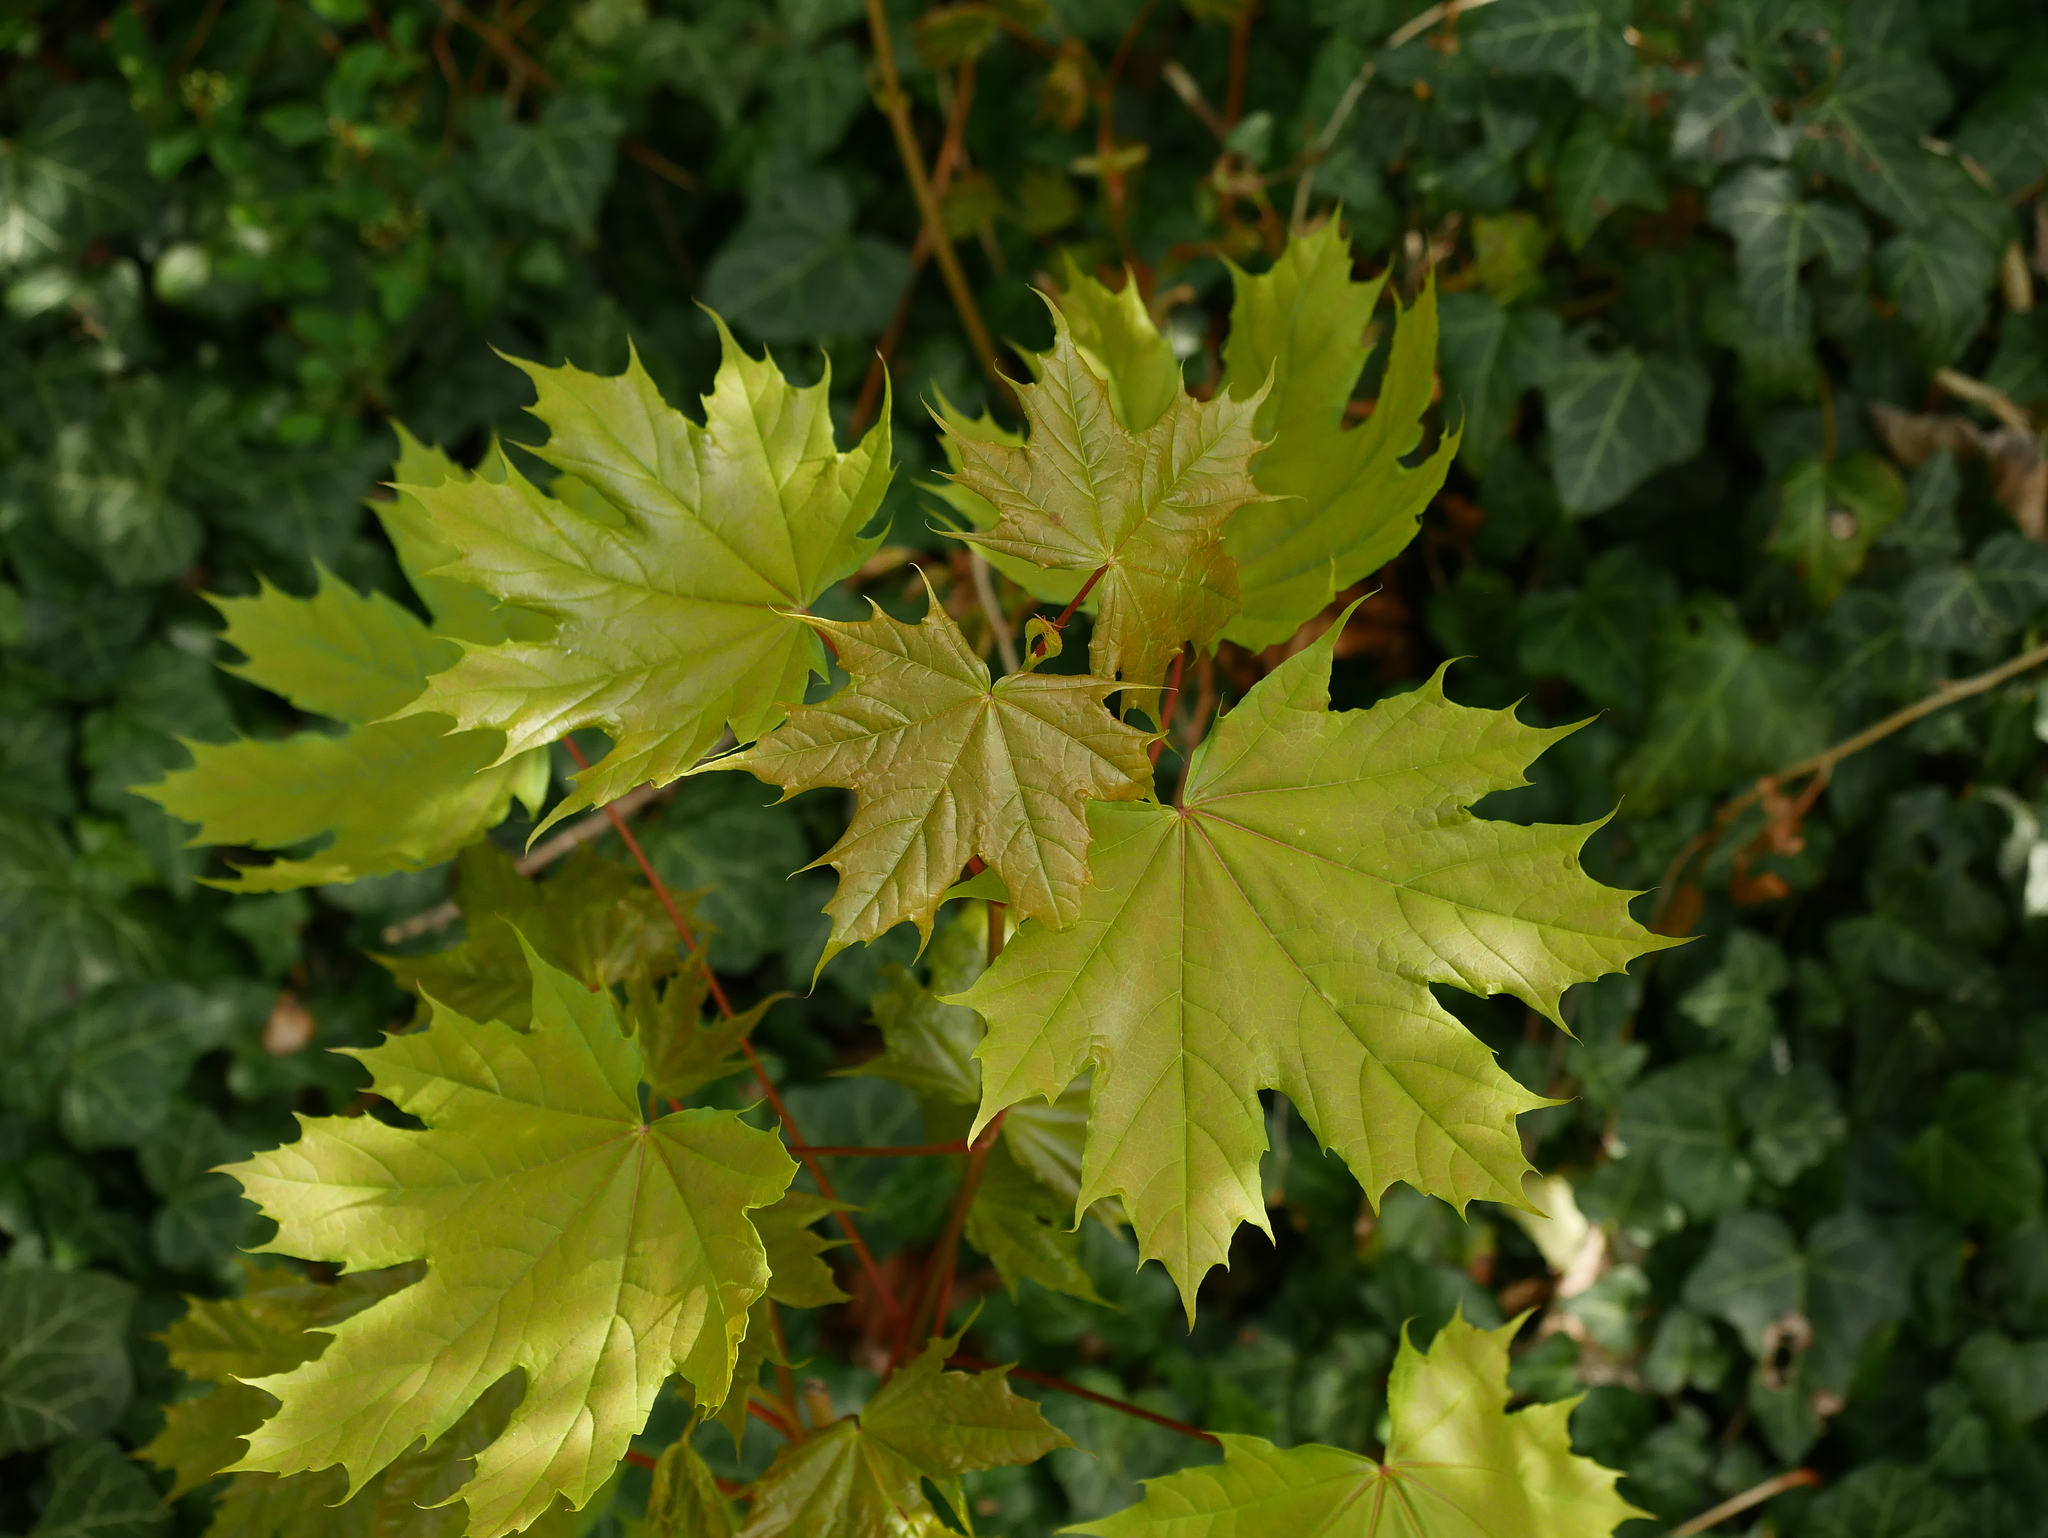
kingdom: Plantae
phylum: Tracheophyta
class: Magnoliopsida
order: Sapindales
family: Sapindaceae
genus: Acer
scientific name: Acer platanoides
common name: Norway maple
